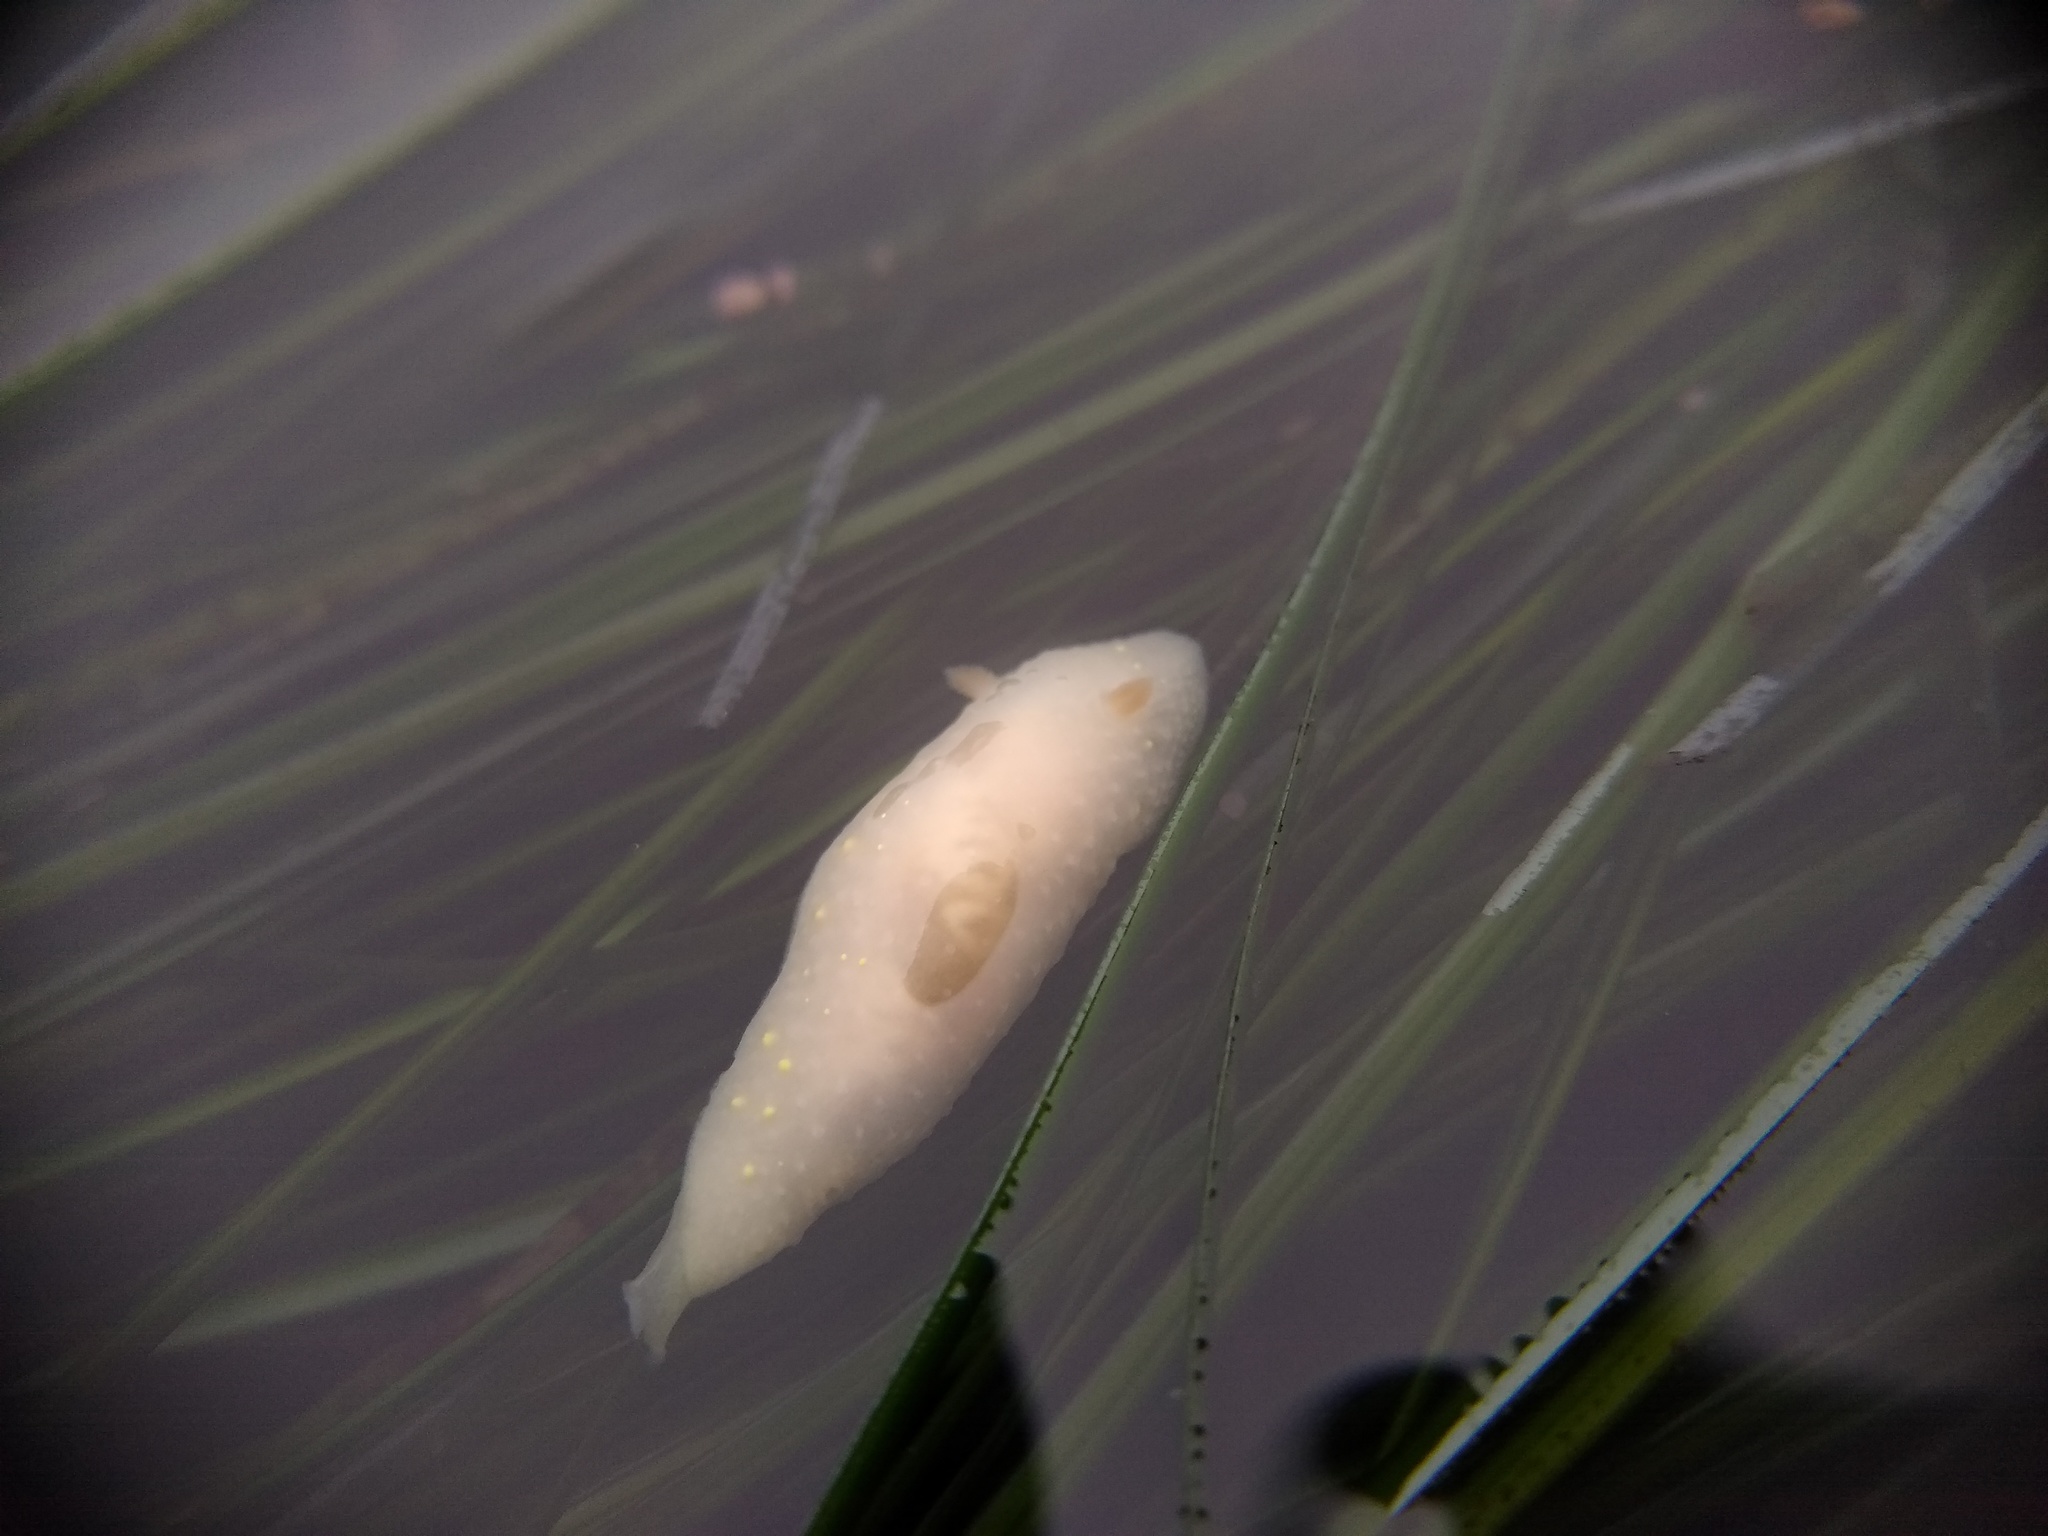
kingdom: Animalia
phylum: Mollusca
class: Gastropoda
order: Nudibranchia
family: Cadlinidae
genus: Cadlina
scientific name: Cadlina modesta
